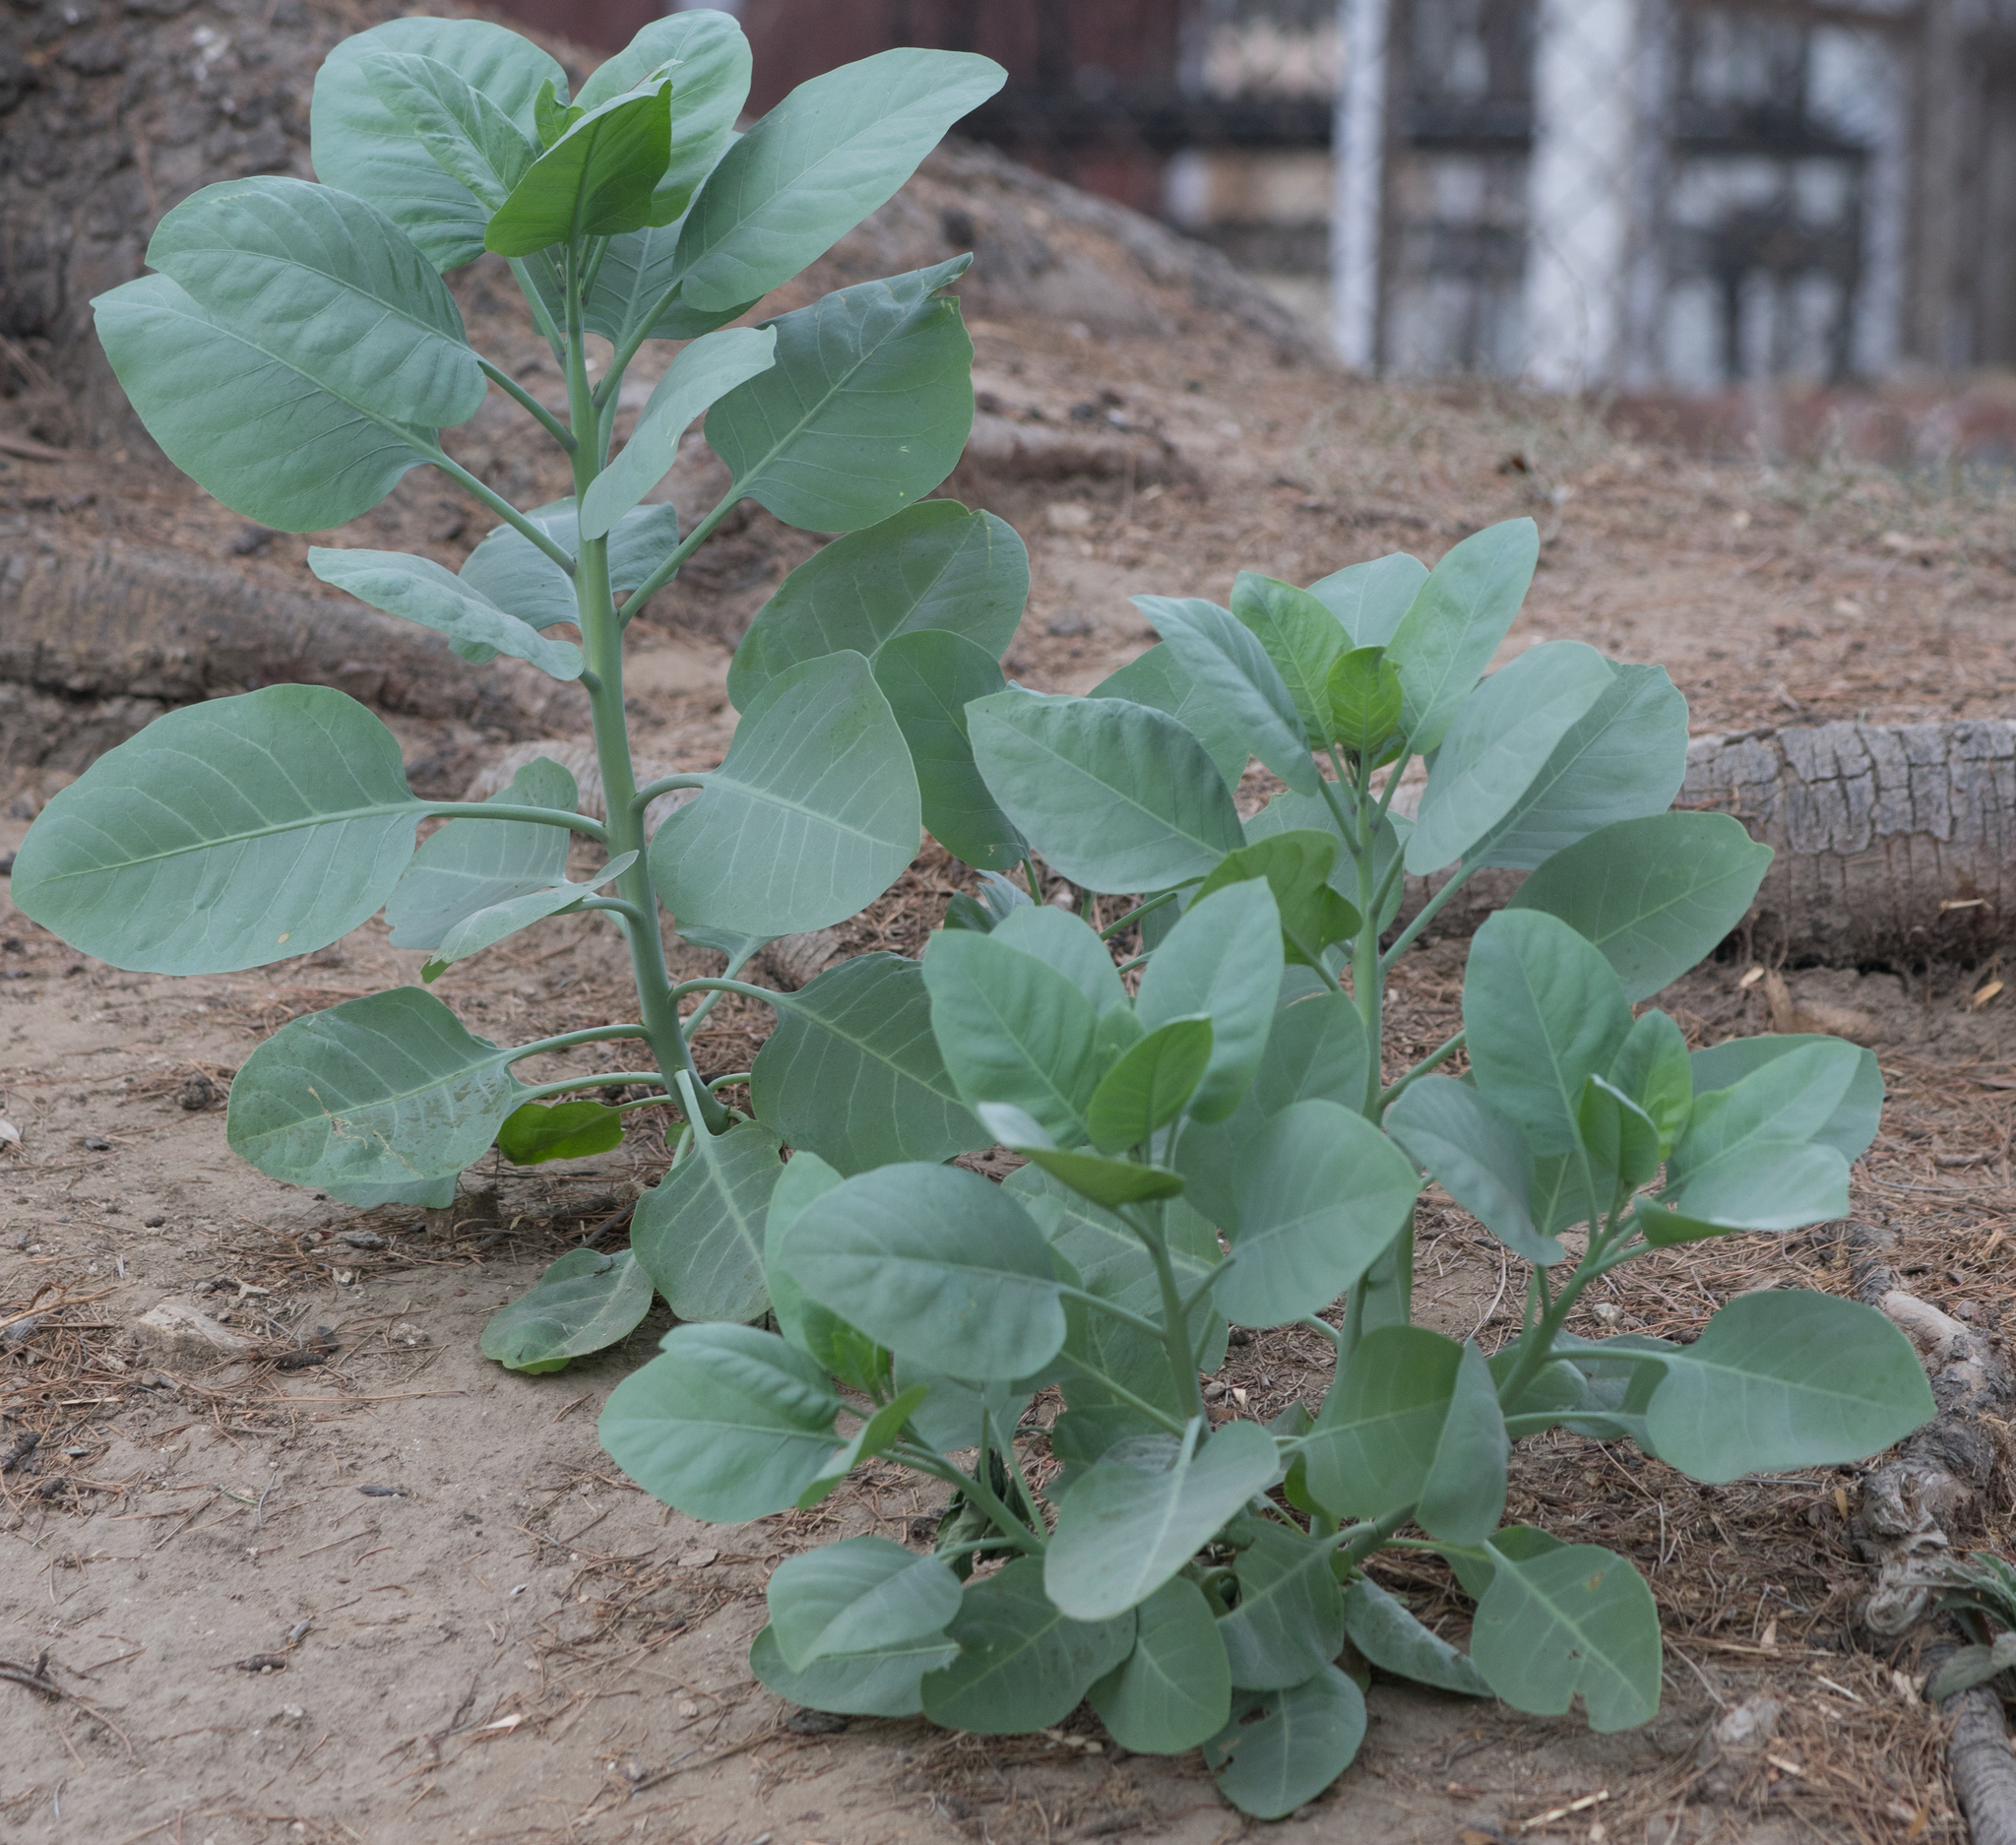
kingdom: Plantae
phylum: Tracheophyta
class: Magnoliopsida
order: Solanales
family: Solanaceae
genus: Nicotiana
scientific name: Nicotiana glauca
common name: Tree tobacco
